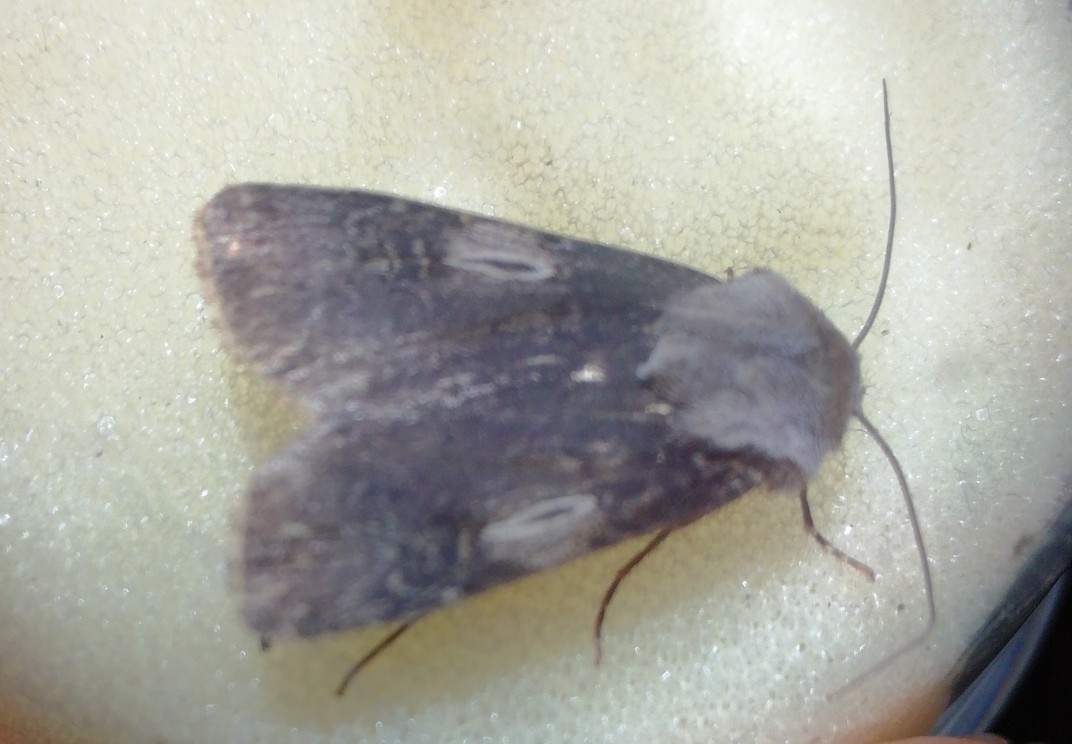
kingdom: Animalia
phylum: Arthropoda
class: Insecta
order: Lepidoptera
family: Noctuidae
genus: Agrotis
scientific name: Agrotis puta
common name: Shuttle-shaped dart
